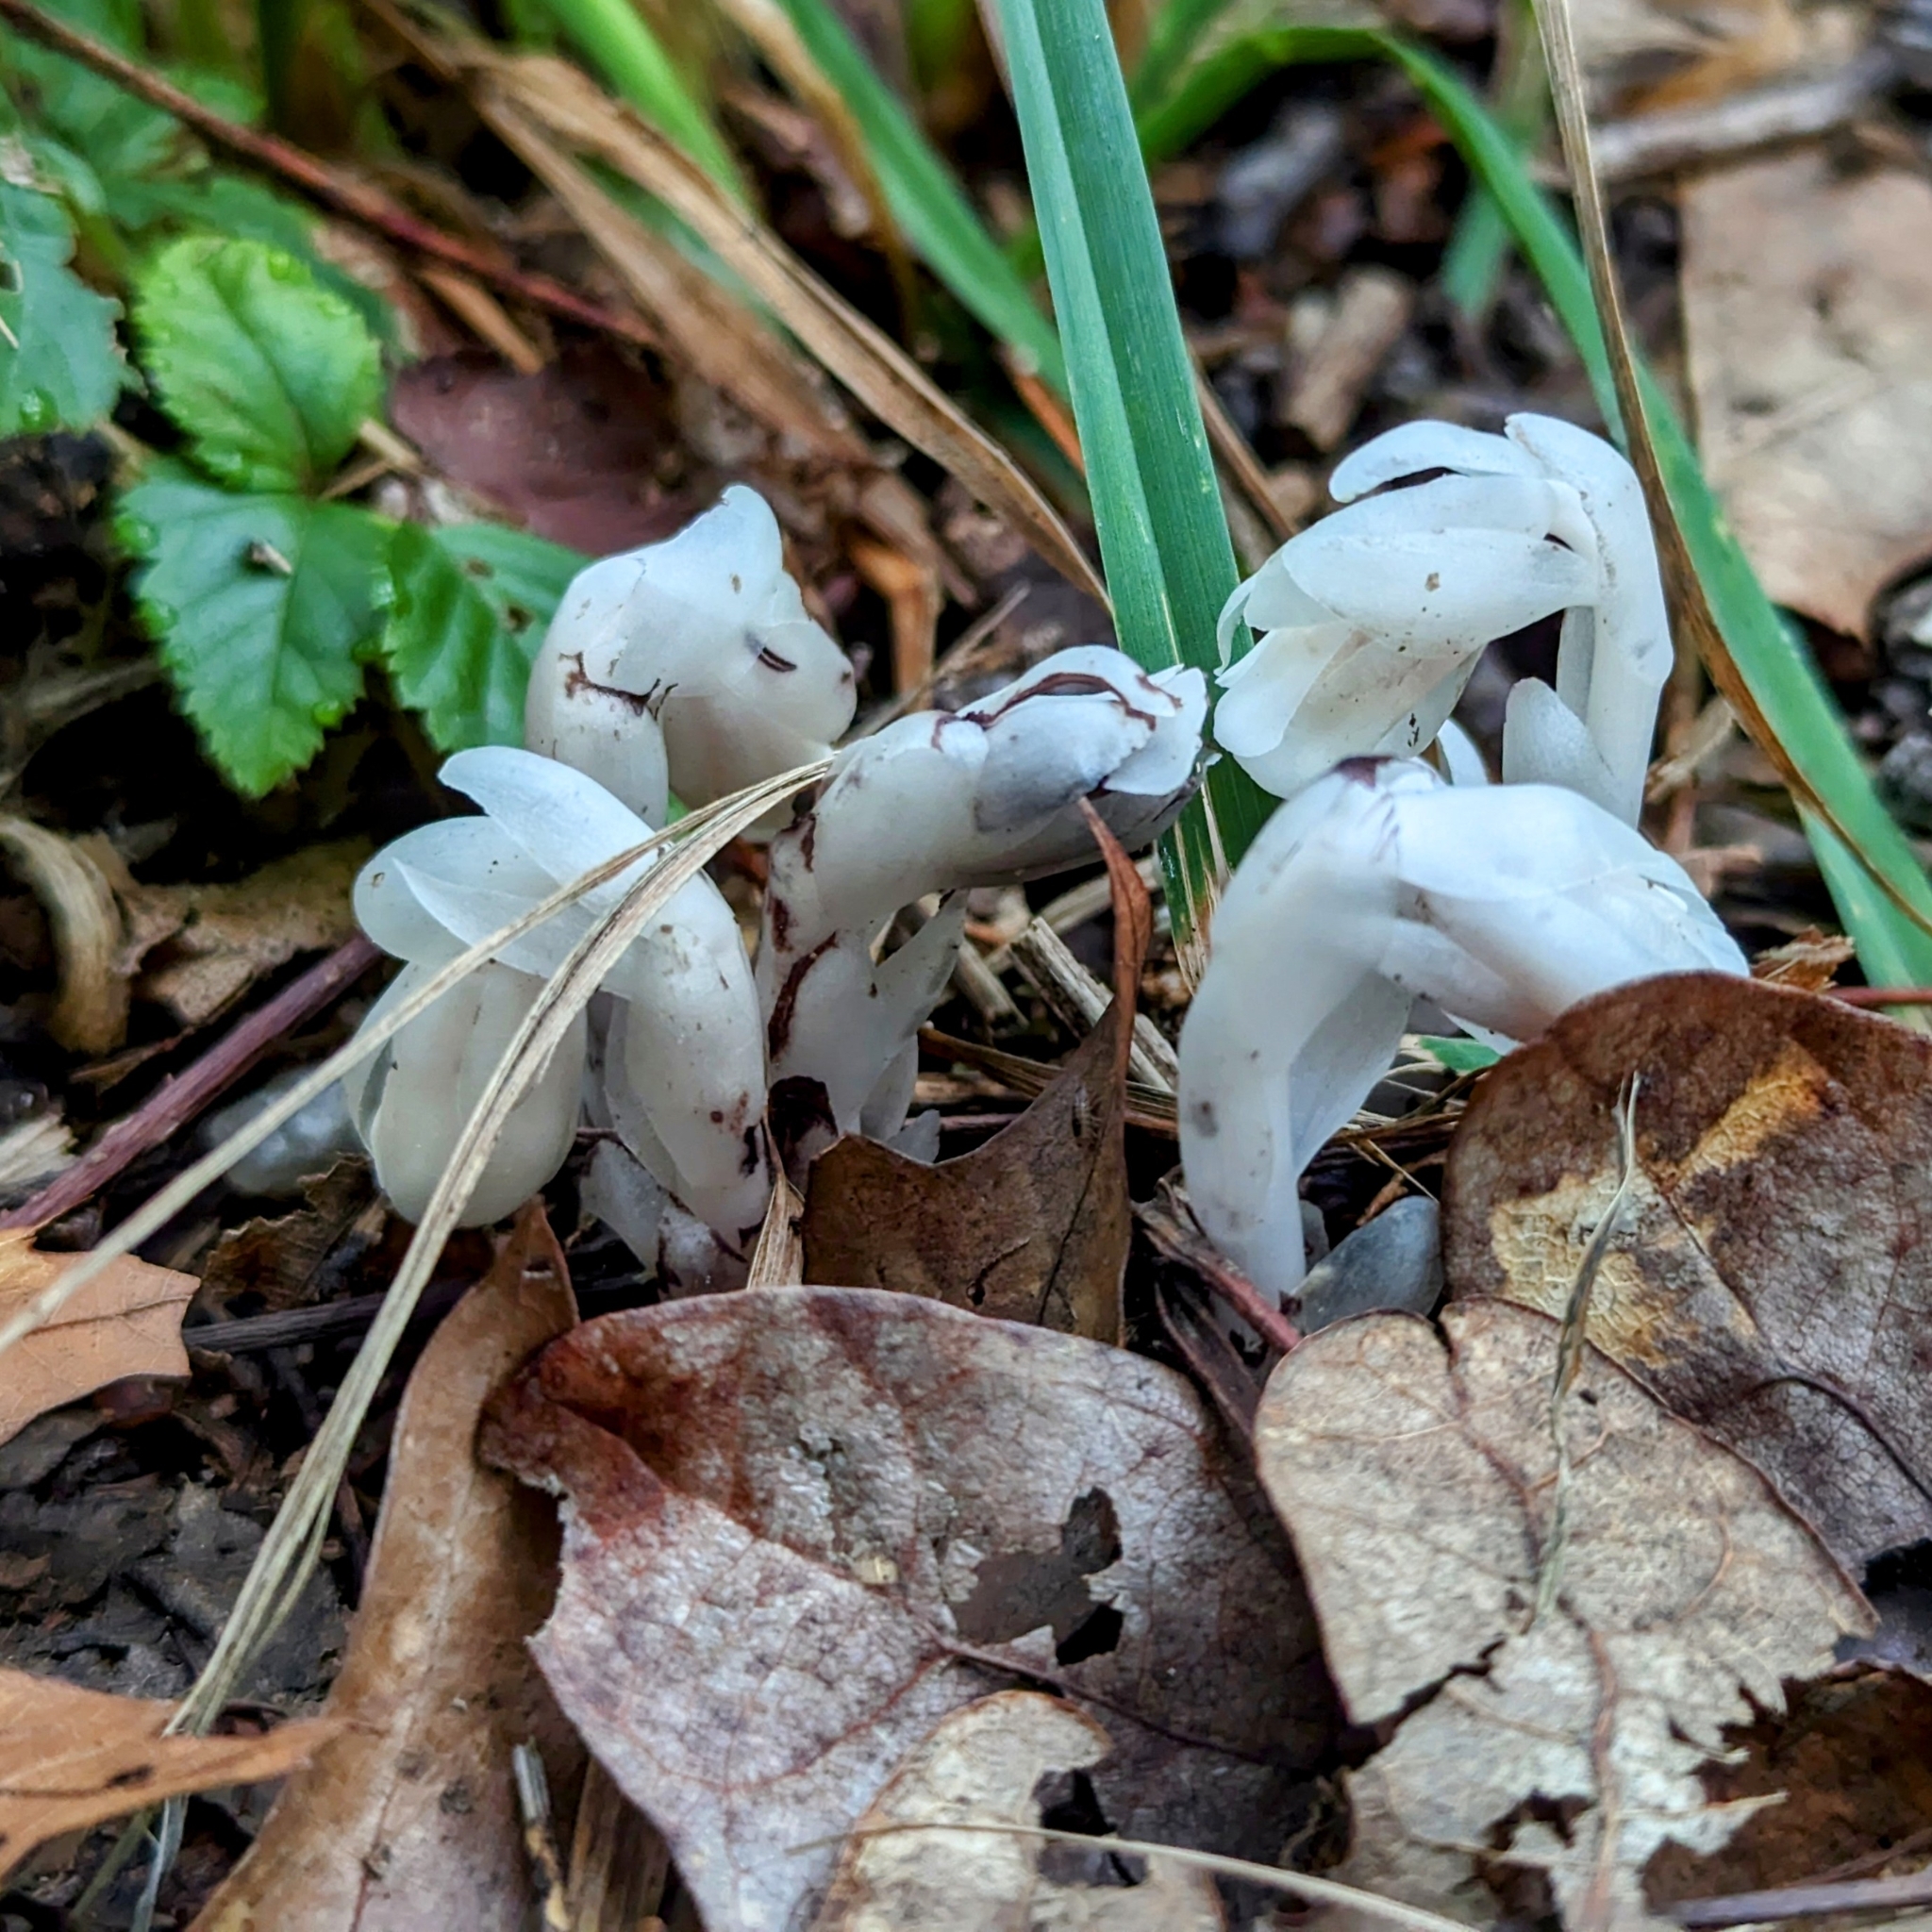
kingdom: Plantae
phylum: Tracheophyta
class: Magnoliopsida
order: Ericales
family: Ericaceae
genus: Monotropa
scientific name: Monotropa uniflora
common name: Convulsion root
